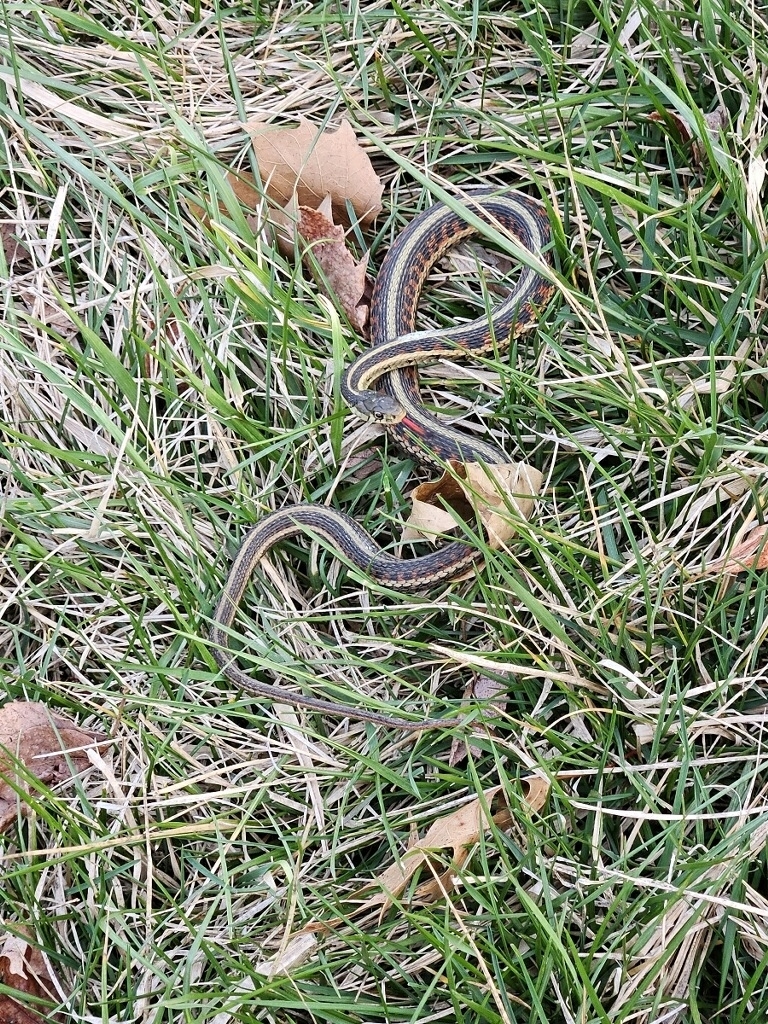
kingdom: Animalia
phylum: Chordata
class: Squamata
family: Colubridae
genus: Thamnophis
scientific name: Thamnophis sirtalis
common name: Common garter snake
